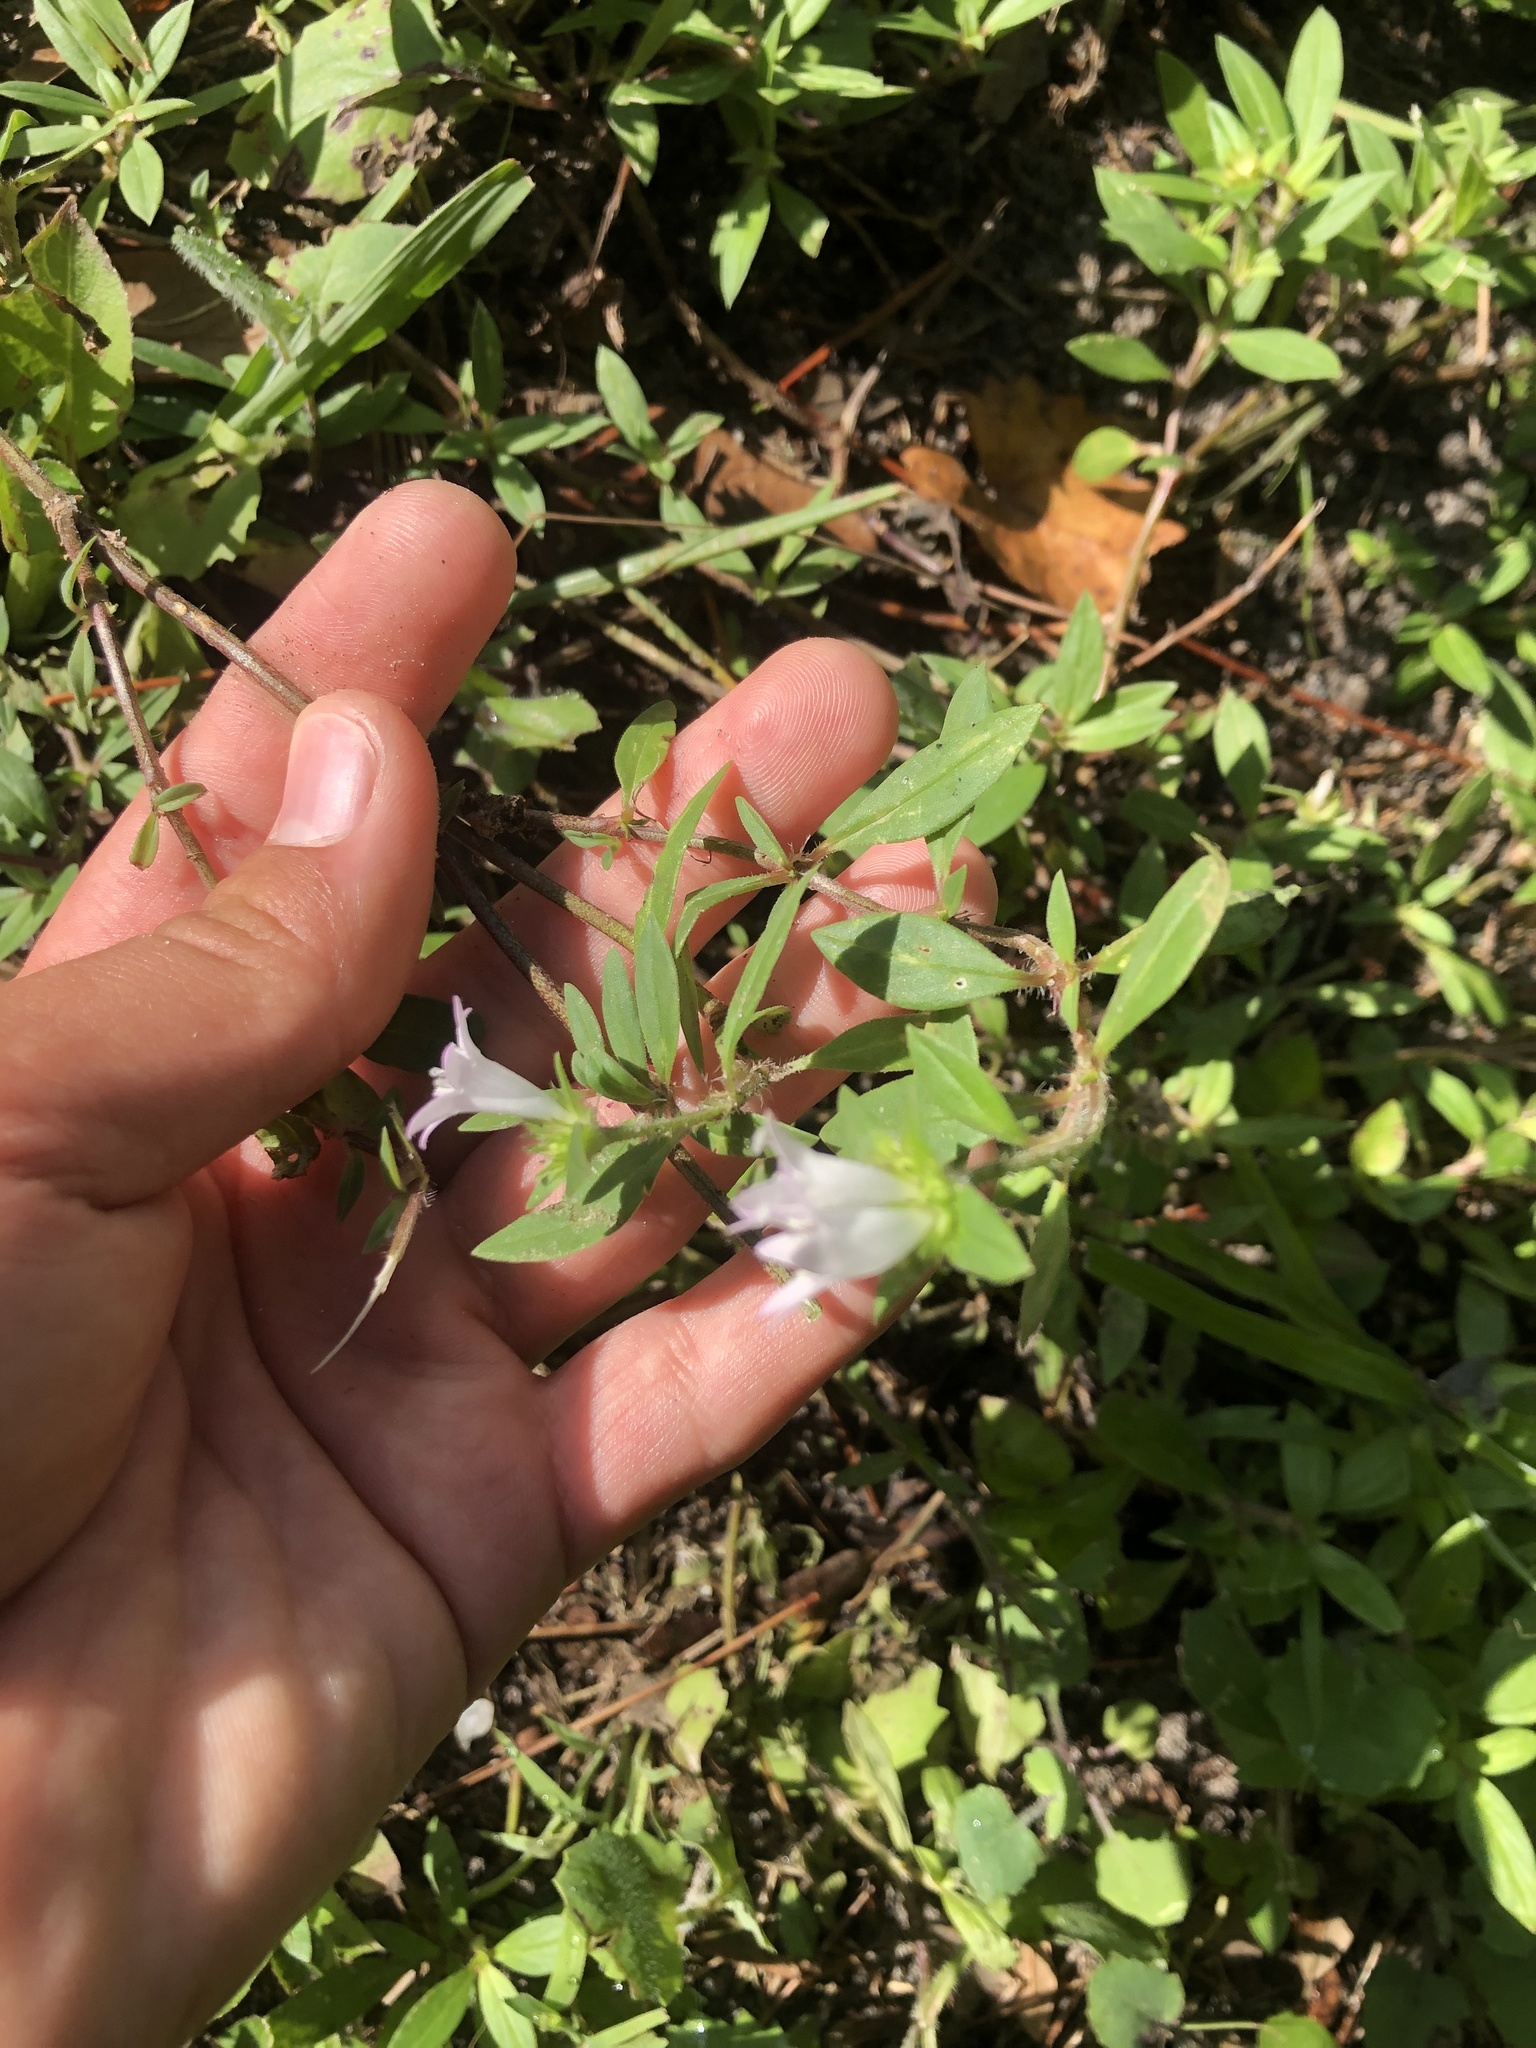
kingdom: Plantae
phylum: Tracheophyta
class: Magnoliopsida
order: Gentianales
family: Rubiaceae
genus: Richardia
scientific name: Richardia grandiflora
